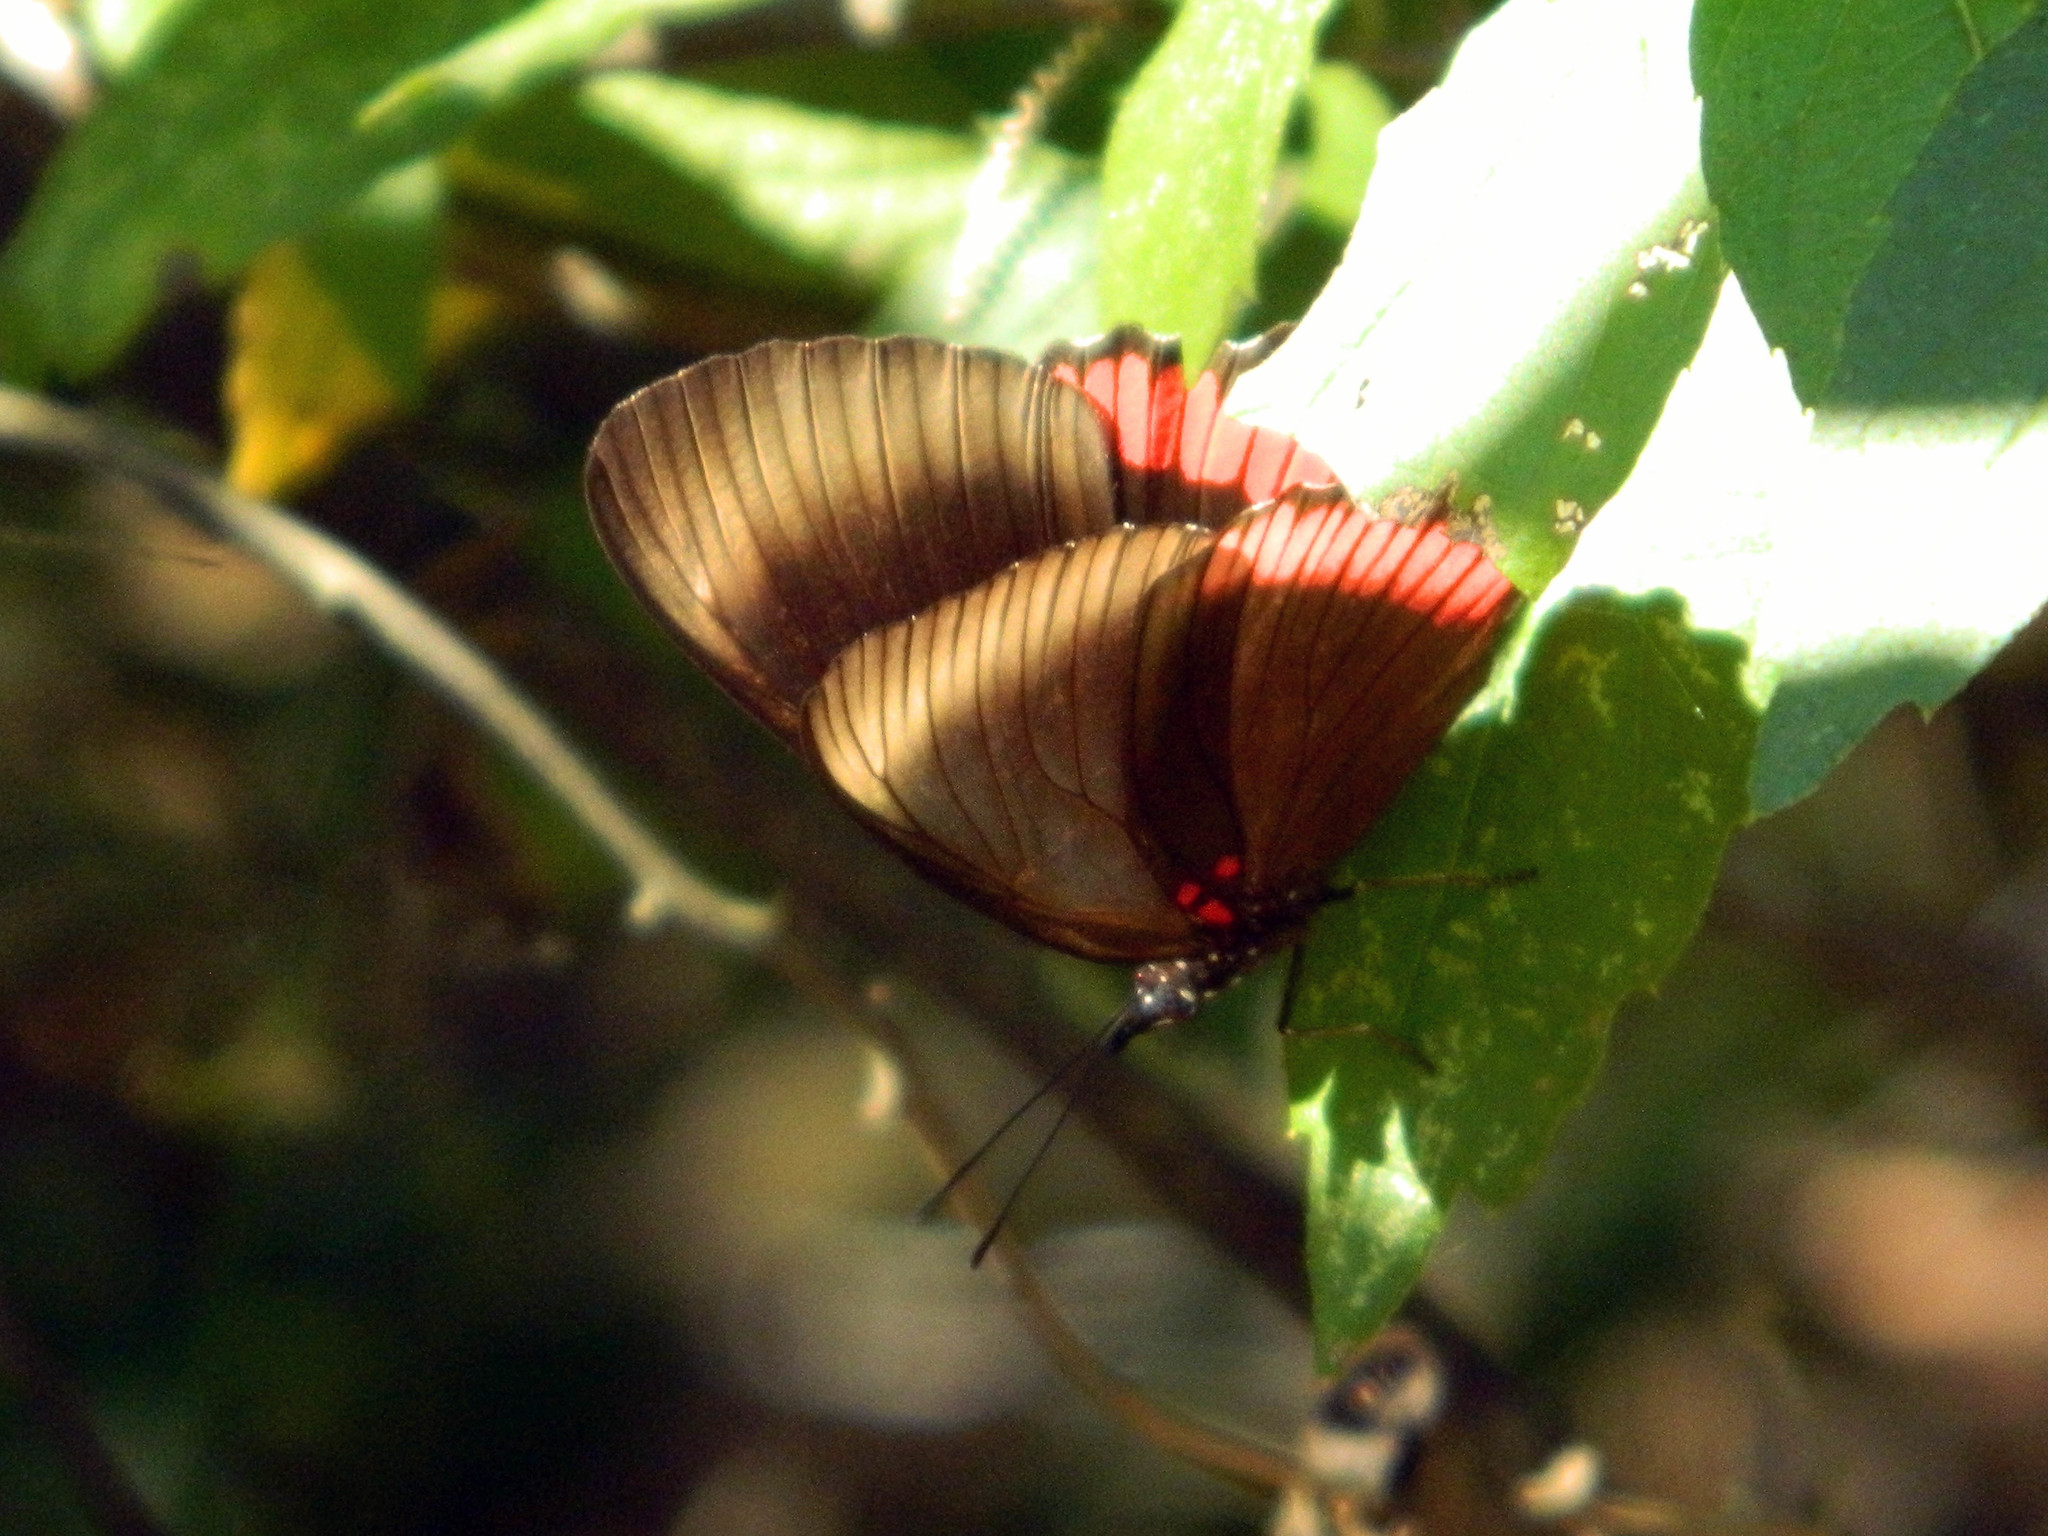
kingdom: Animalia
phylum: Arthropoda
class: Insecta
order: Lepidoptera
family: Sesiidae
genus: Sesia
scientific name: Sesia Biblis hyperia
